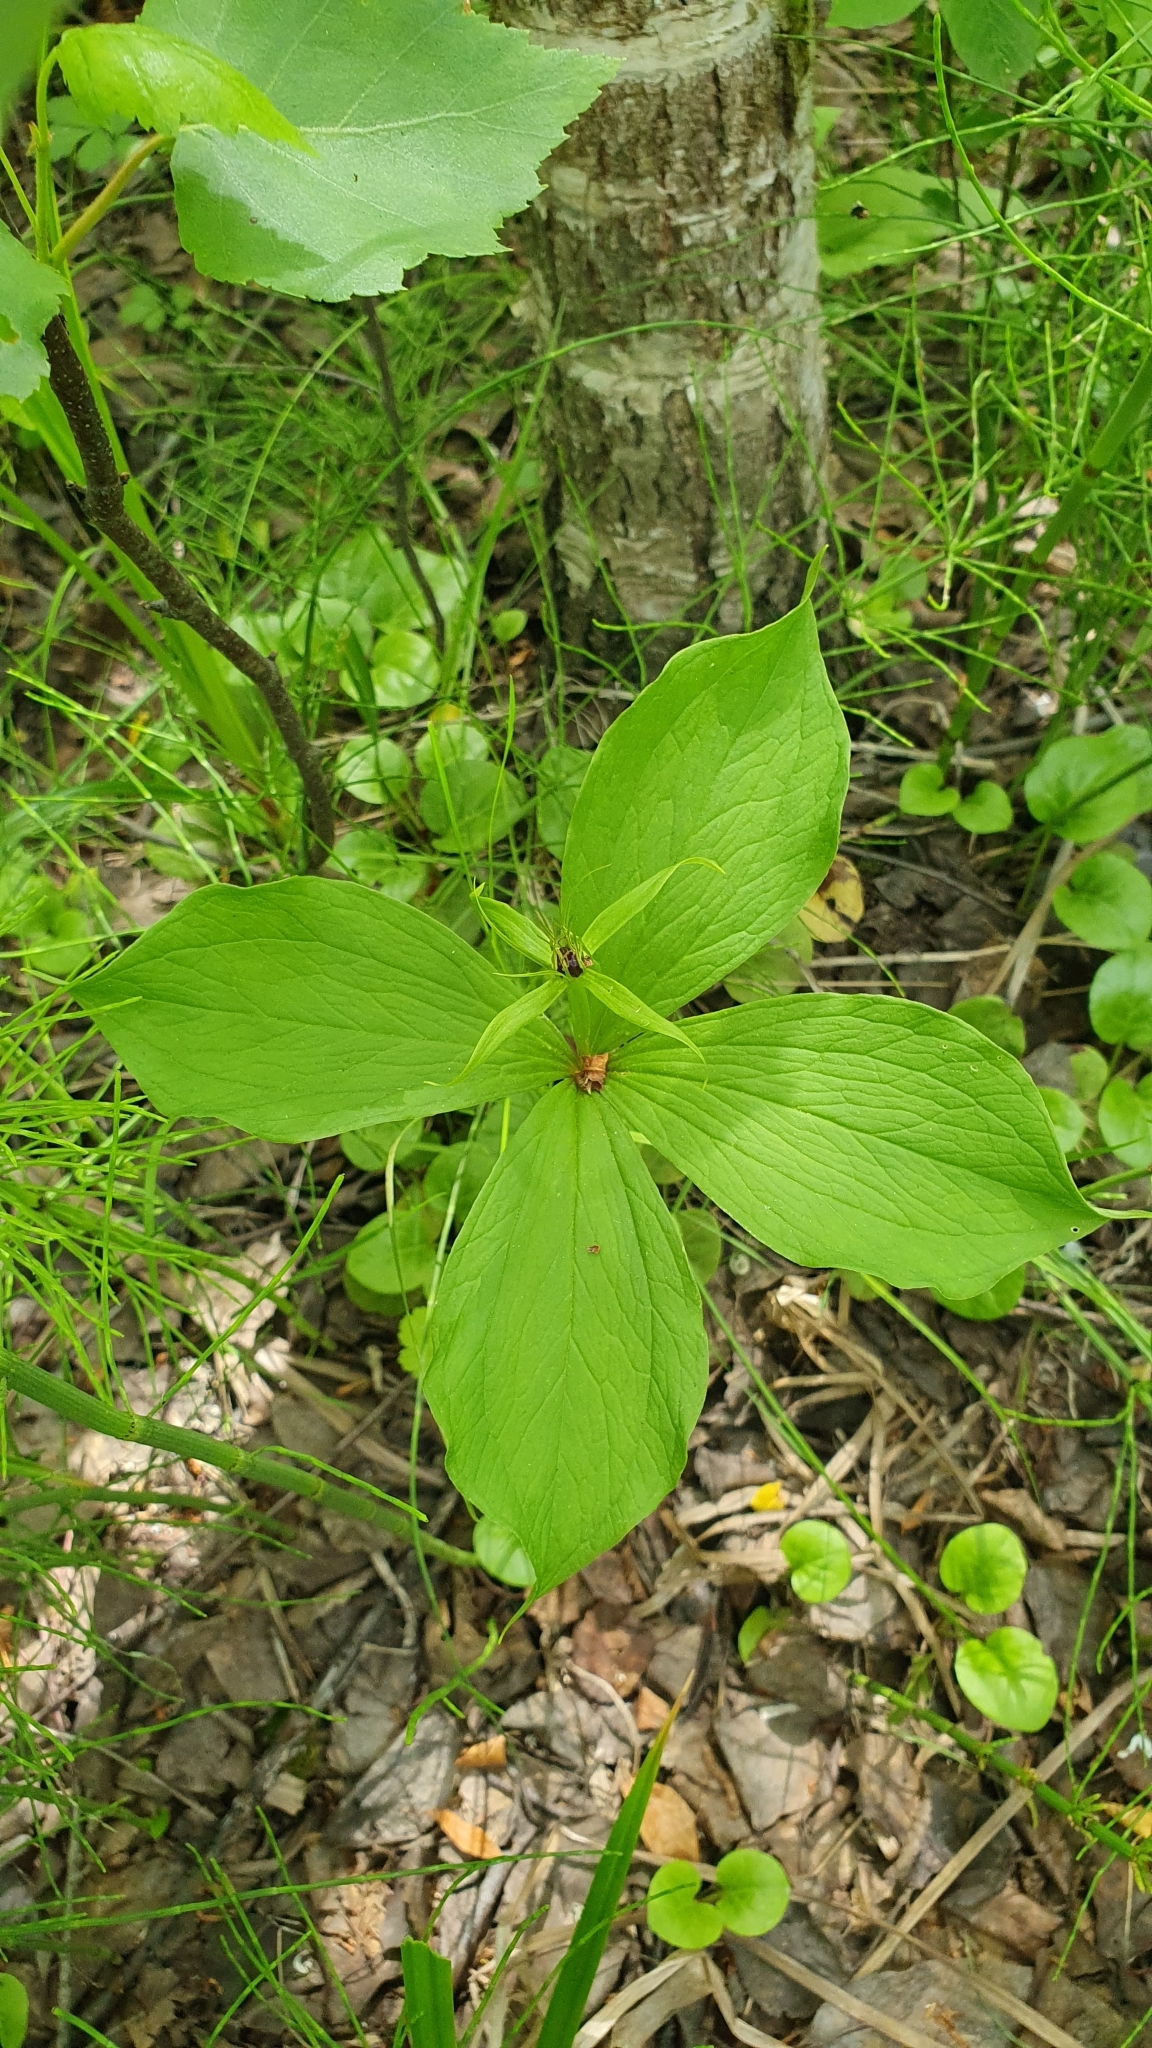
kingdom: Plantae
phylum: Tracheophyta
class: Liliopsida
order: Liliales
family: Melanthiaceae
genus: Paris
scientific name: Paris quadrifolia
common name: Herb-paris
